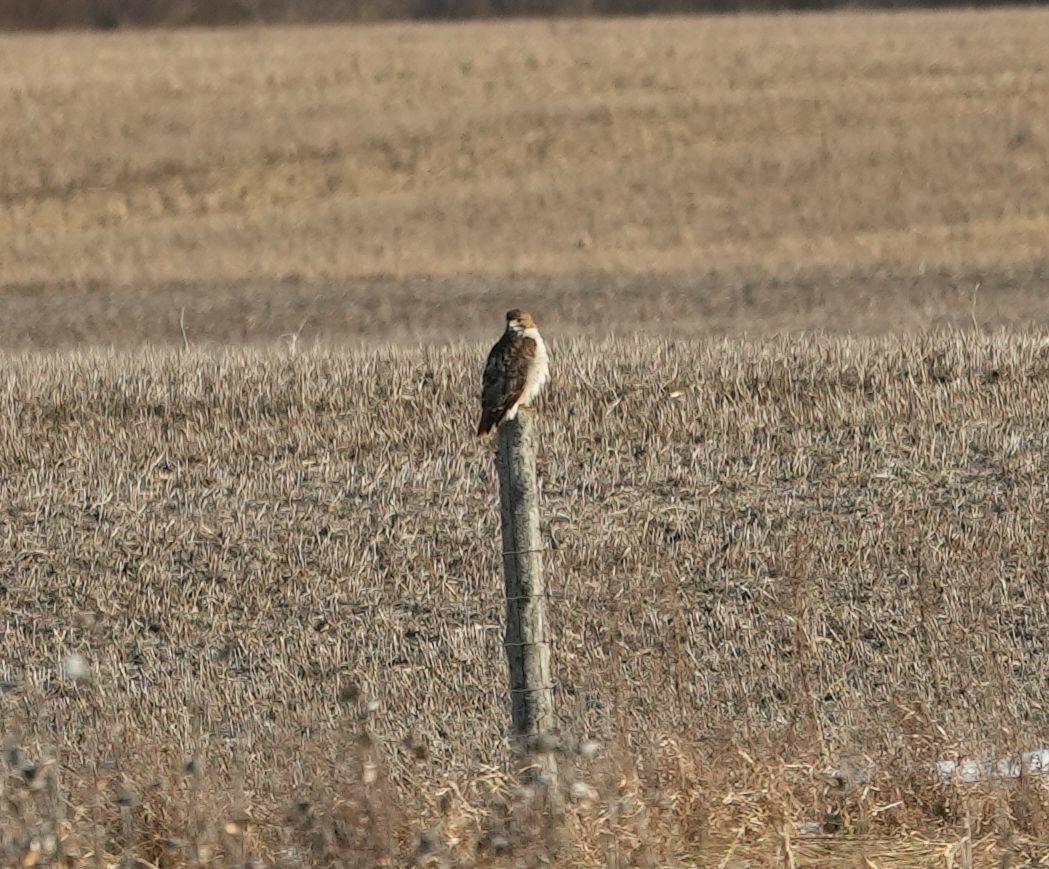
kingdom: Animalia
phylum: Chordata
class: Aves
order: Accipitriformes
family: Accipitridae
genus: Buteo
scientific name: Buteo jamaicensis
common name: Red-tailed hawk
